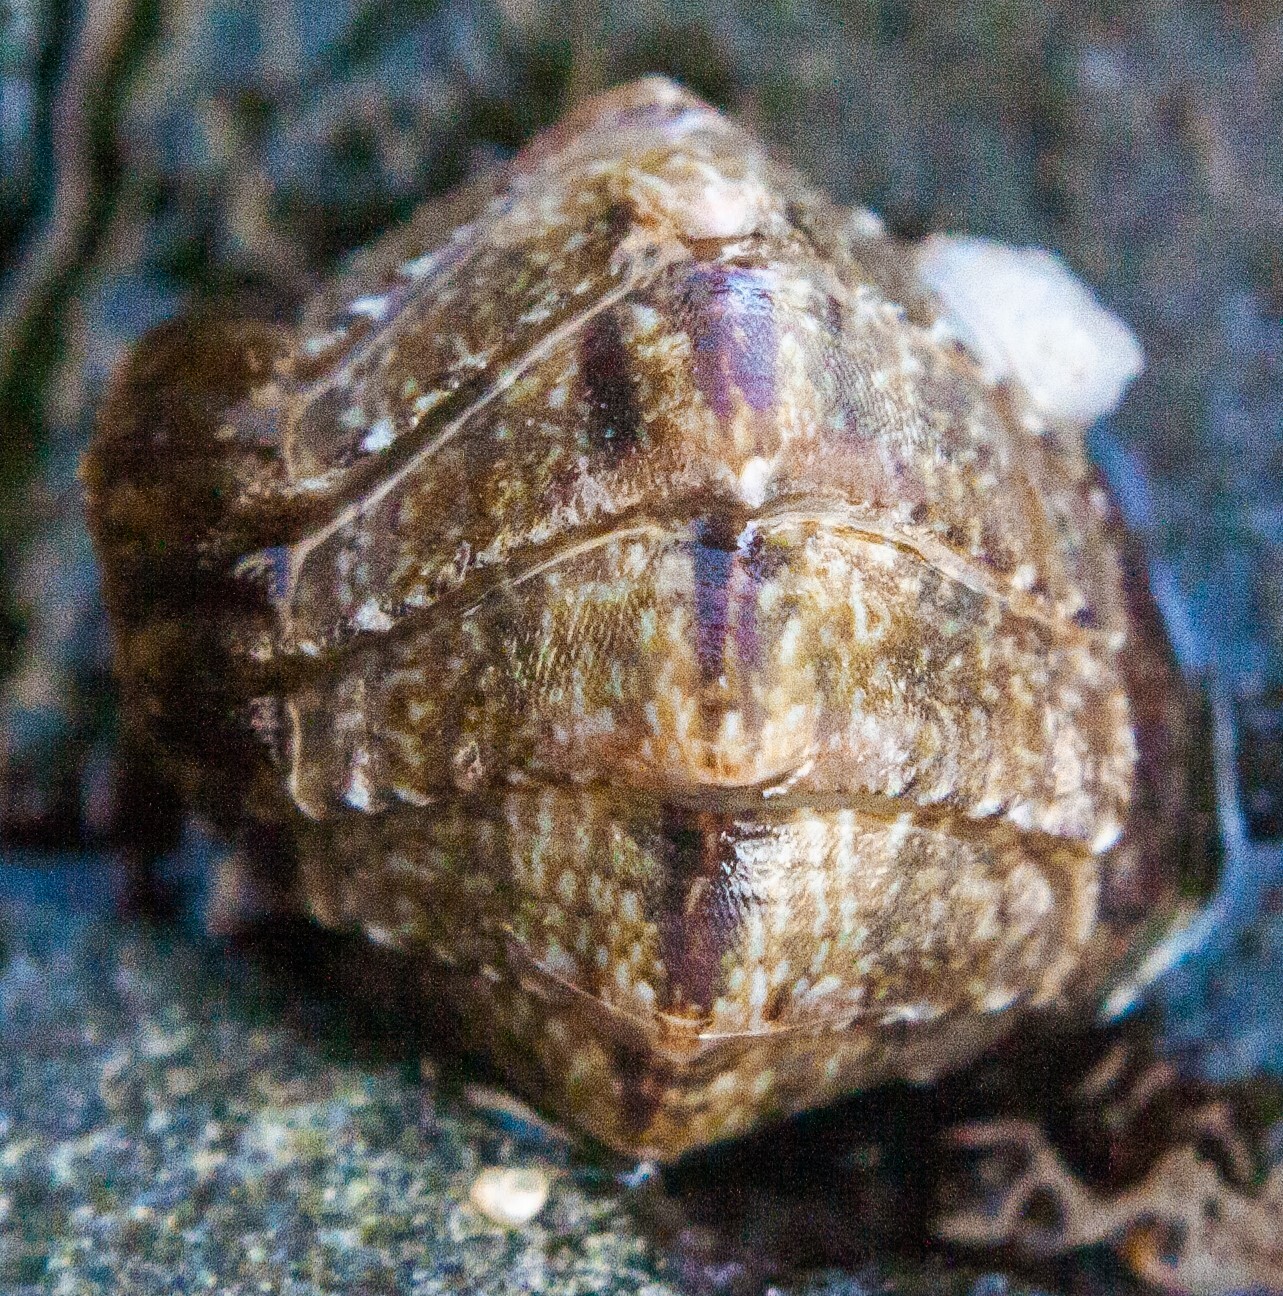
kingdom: Animalia
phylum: Mollusca
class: Polyplacophora
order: Chitonida
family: Tonicellidae
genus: Lepidochitona
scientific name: Lepidochitona cinerea
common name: Cinereous chiton
